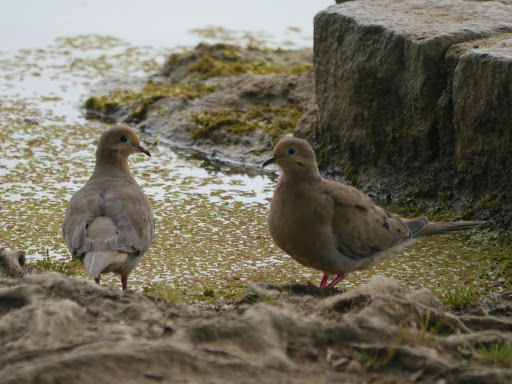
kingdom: Animalia
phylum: Chordata
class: Aves
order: Columbiformes
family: Columbidae
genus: Zenaida
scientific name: Zenaida macroura
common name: Mourning dove
